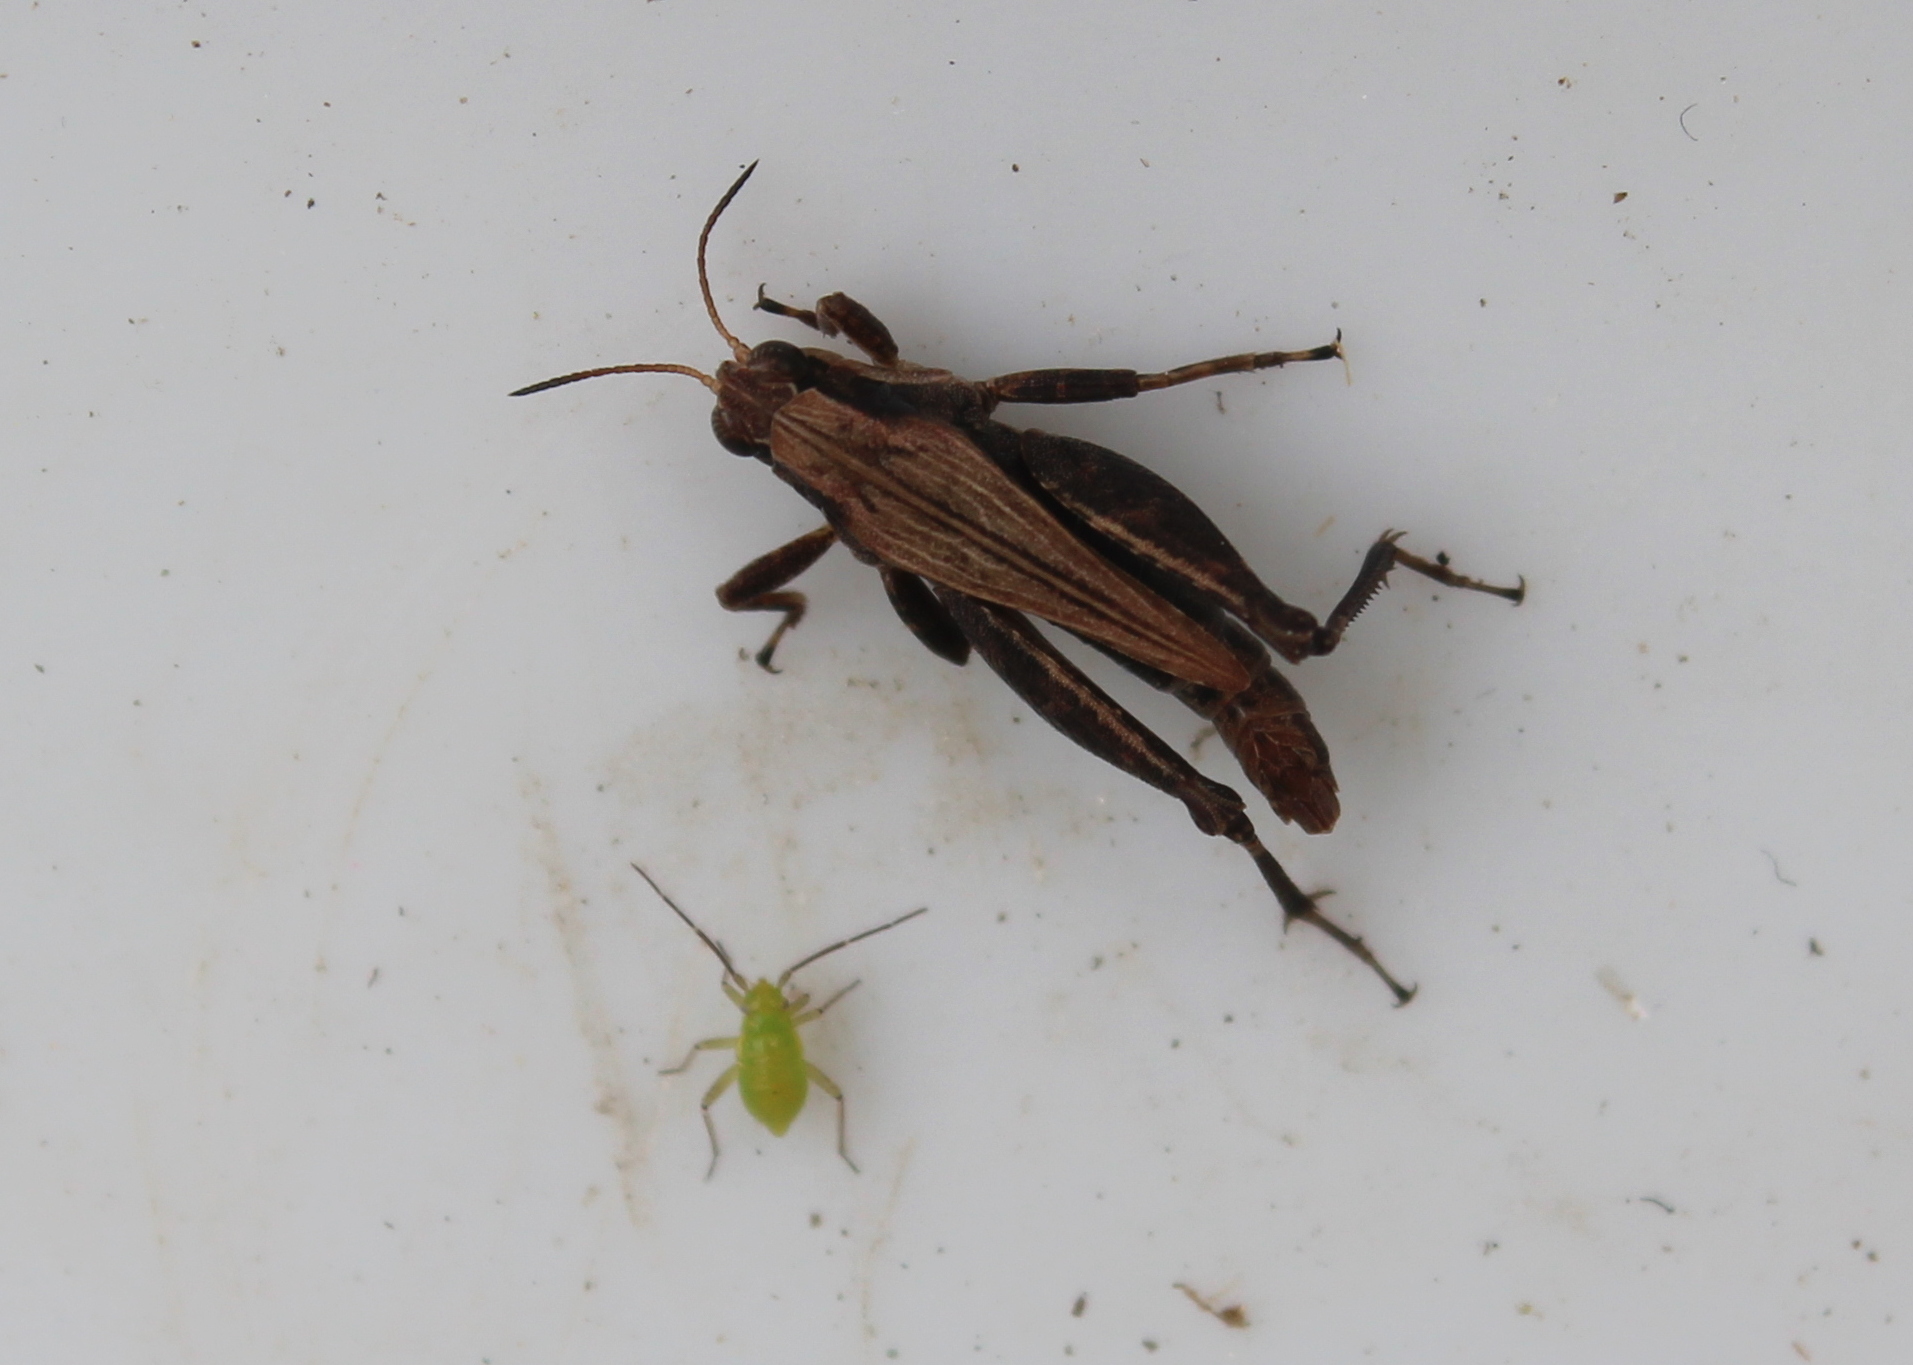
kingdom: Animalia
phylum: Arthropoda
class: Insecta
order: Orthoptera
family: Tetrigidae
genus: Tettigidea
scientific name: Tettigidea laterale
